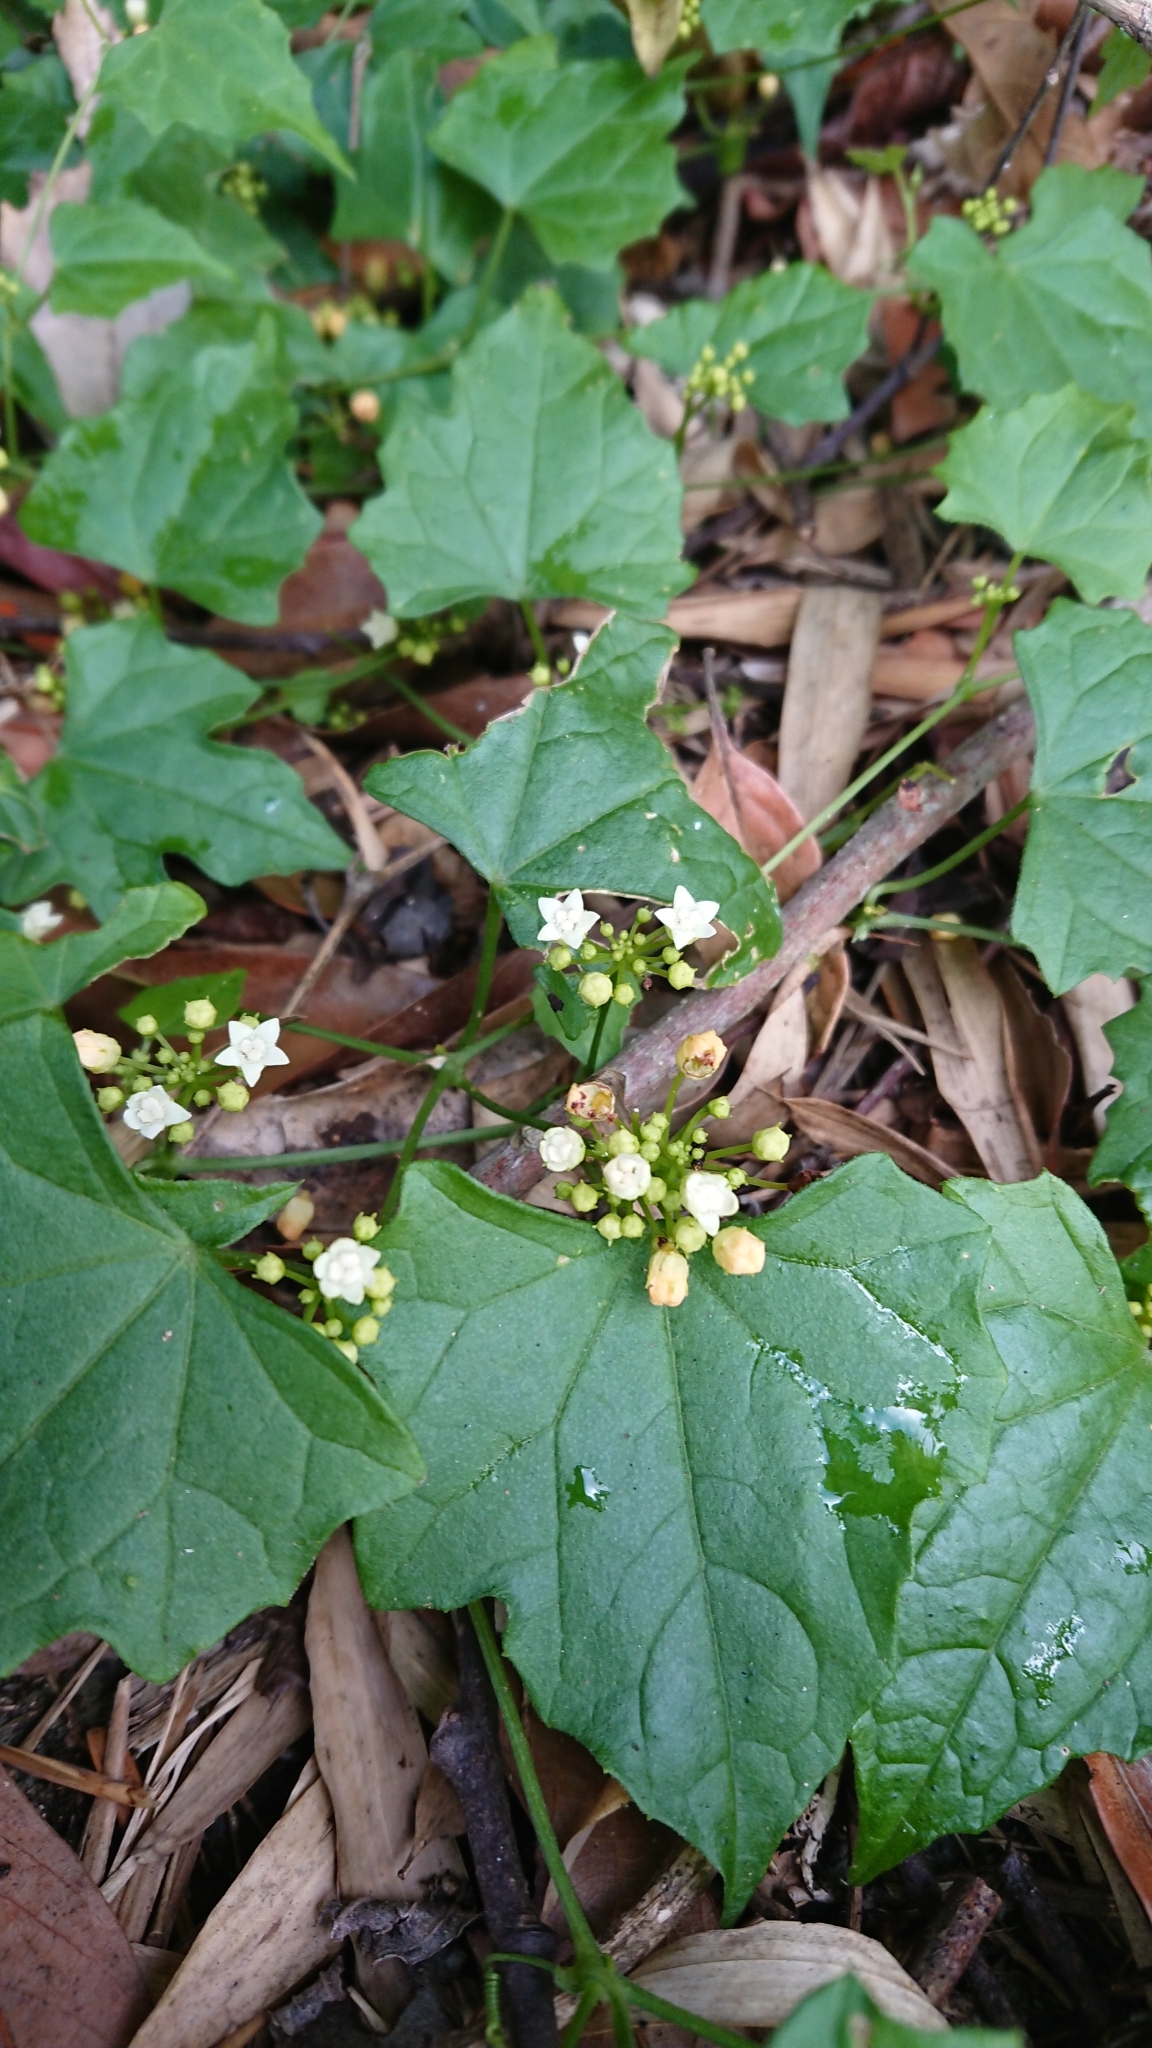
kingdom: Plantae
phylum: Tracheophyta
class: Magnoliopsida
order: Cucurbitales
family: Cucurbitaceae
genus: Zehneria
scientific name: Zehneria guamensis
